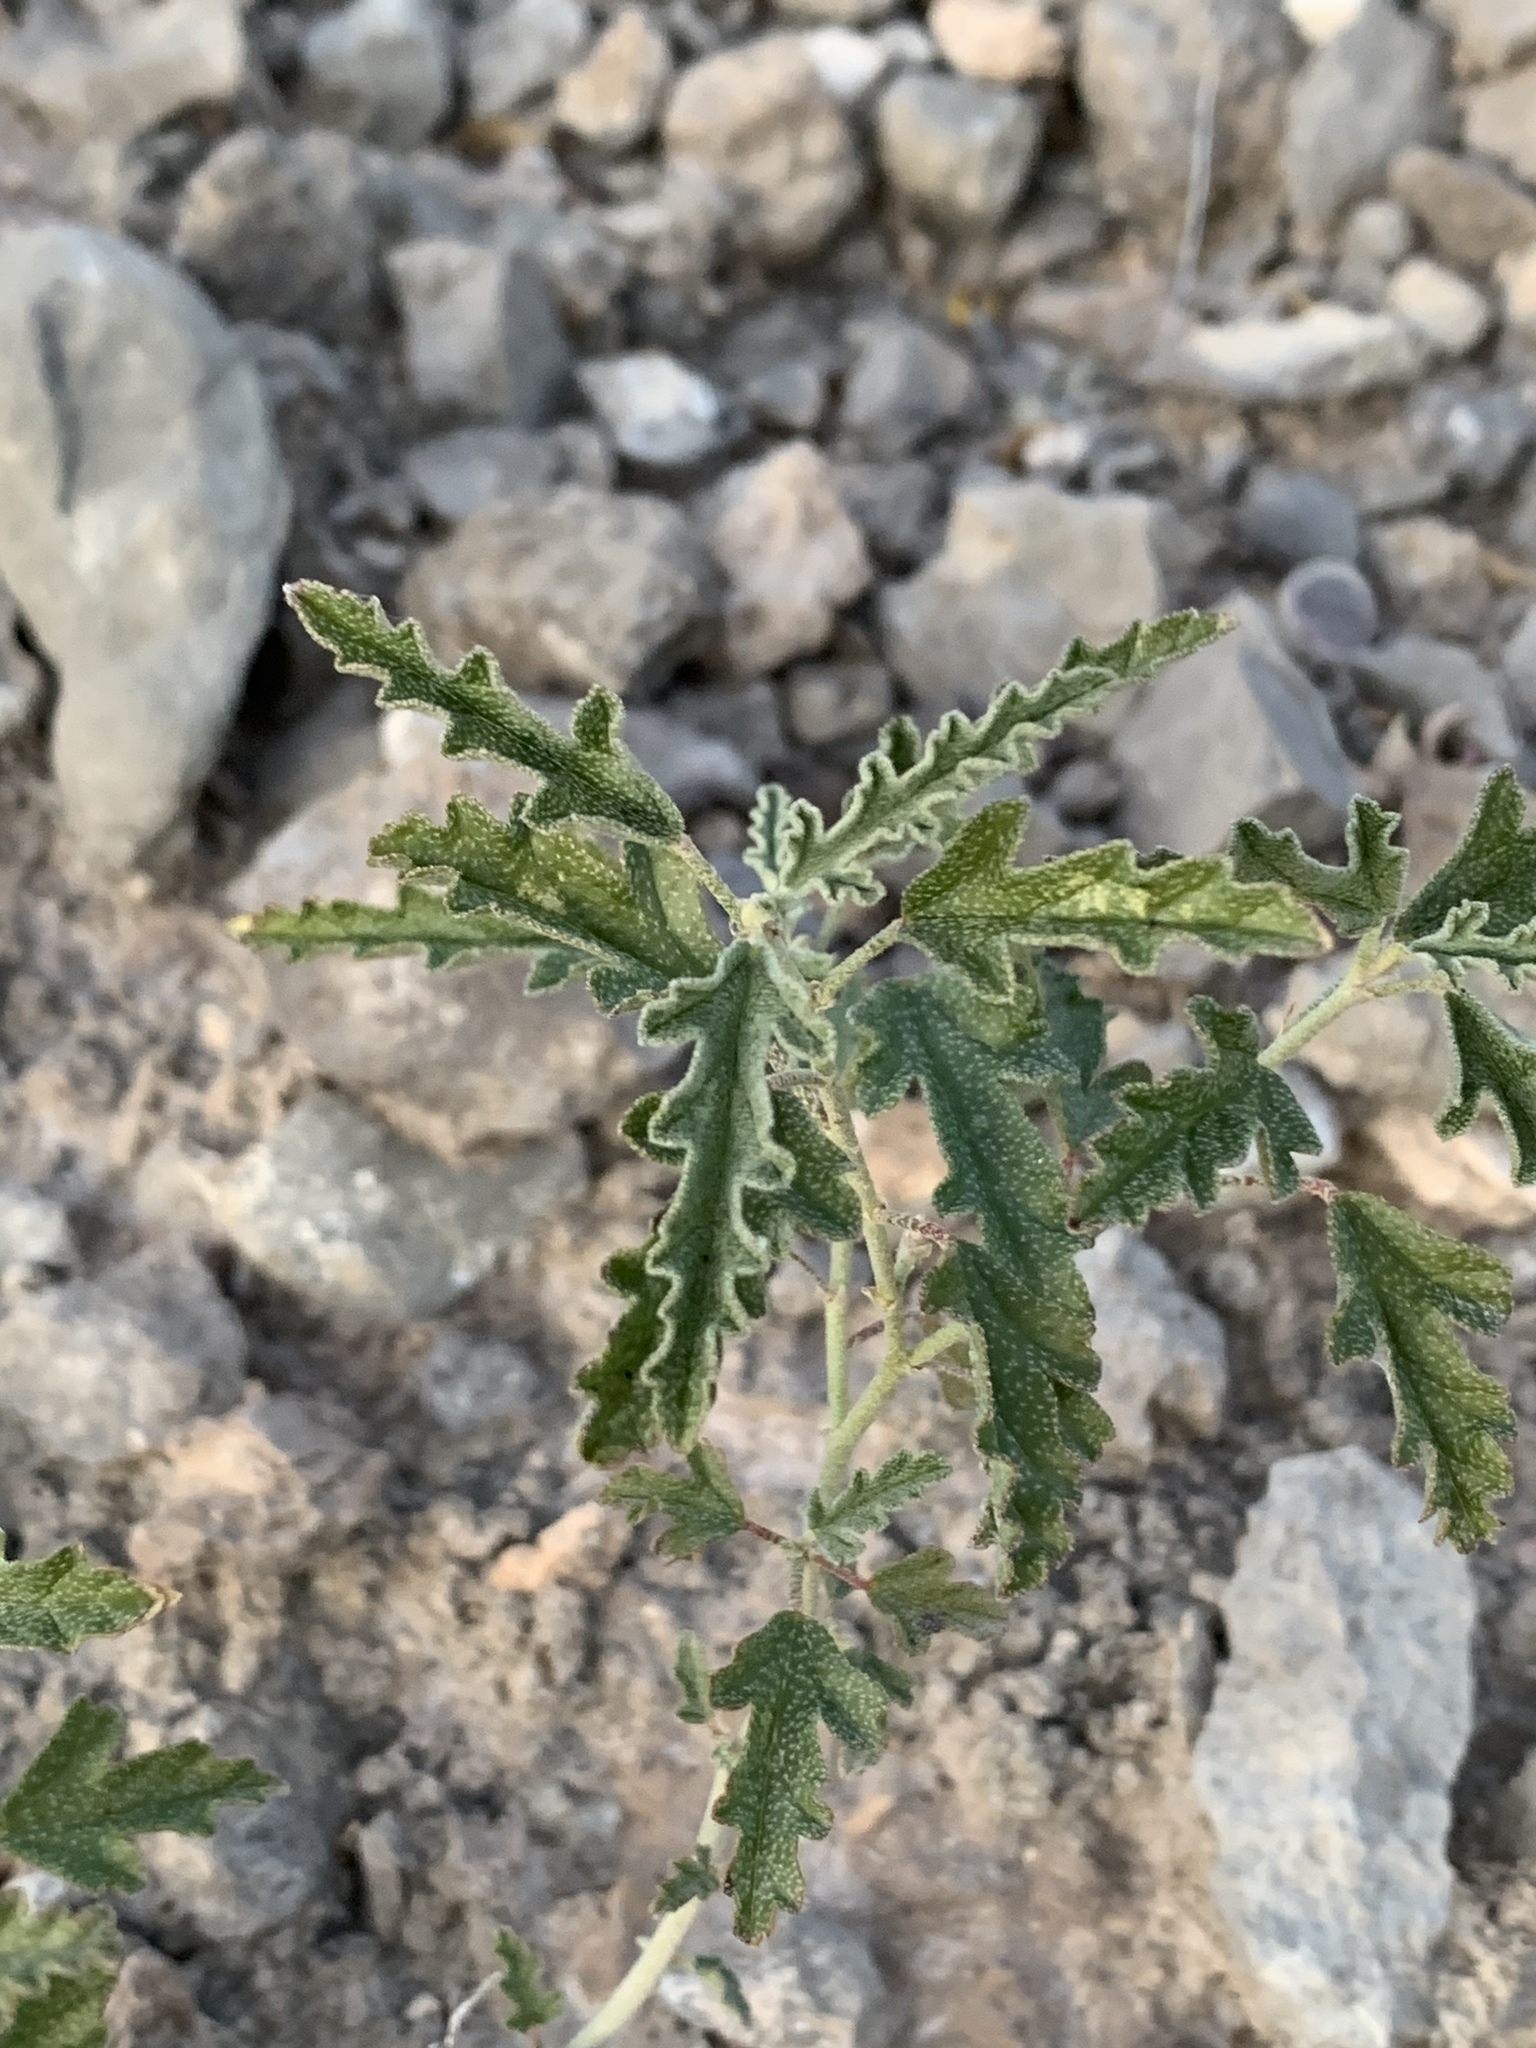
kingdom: Plantae
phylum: Tracheophyta
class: Magnoliopsida
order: Malvales
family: Malvaceae
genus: Sphaeralcea
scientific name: Sphaeralcea hastulata
